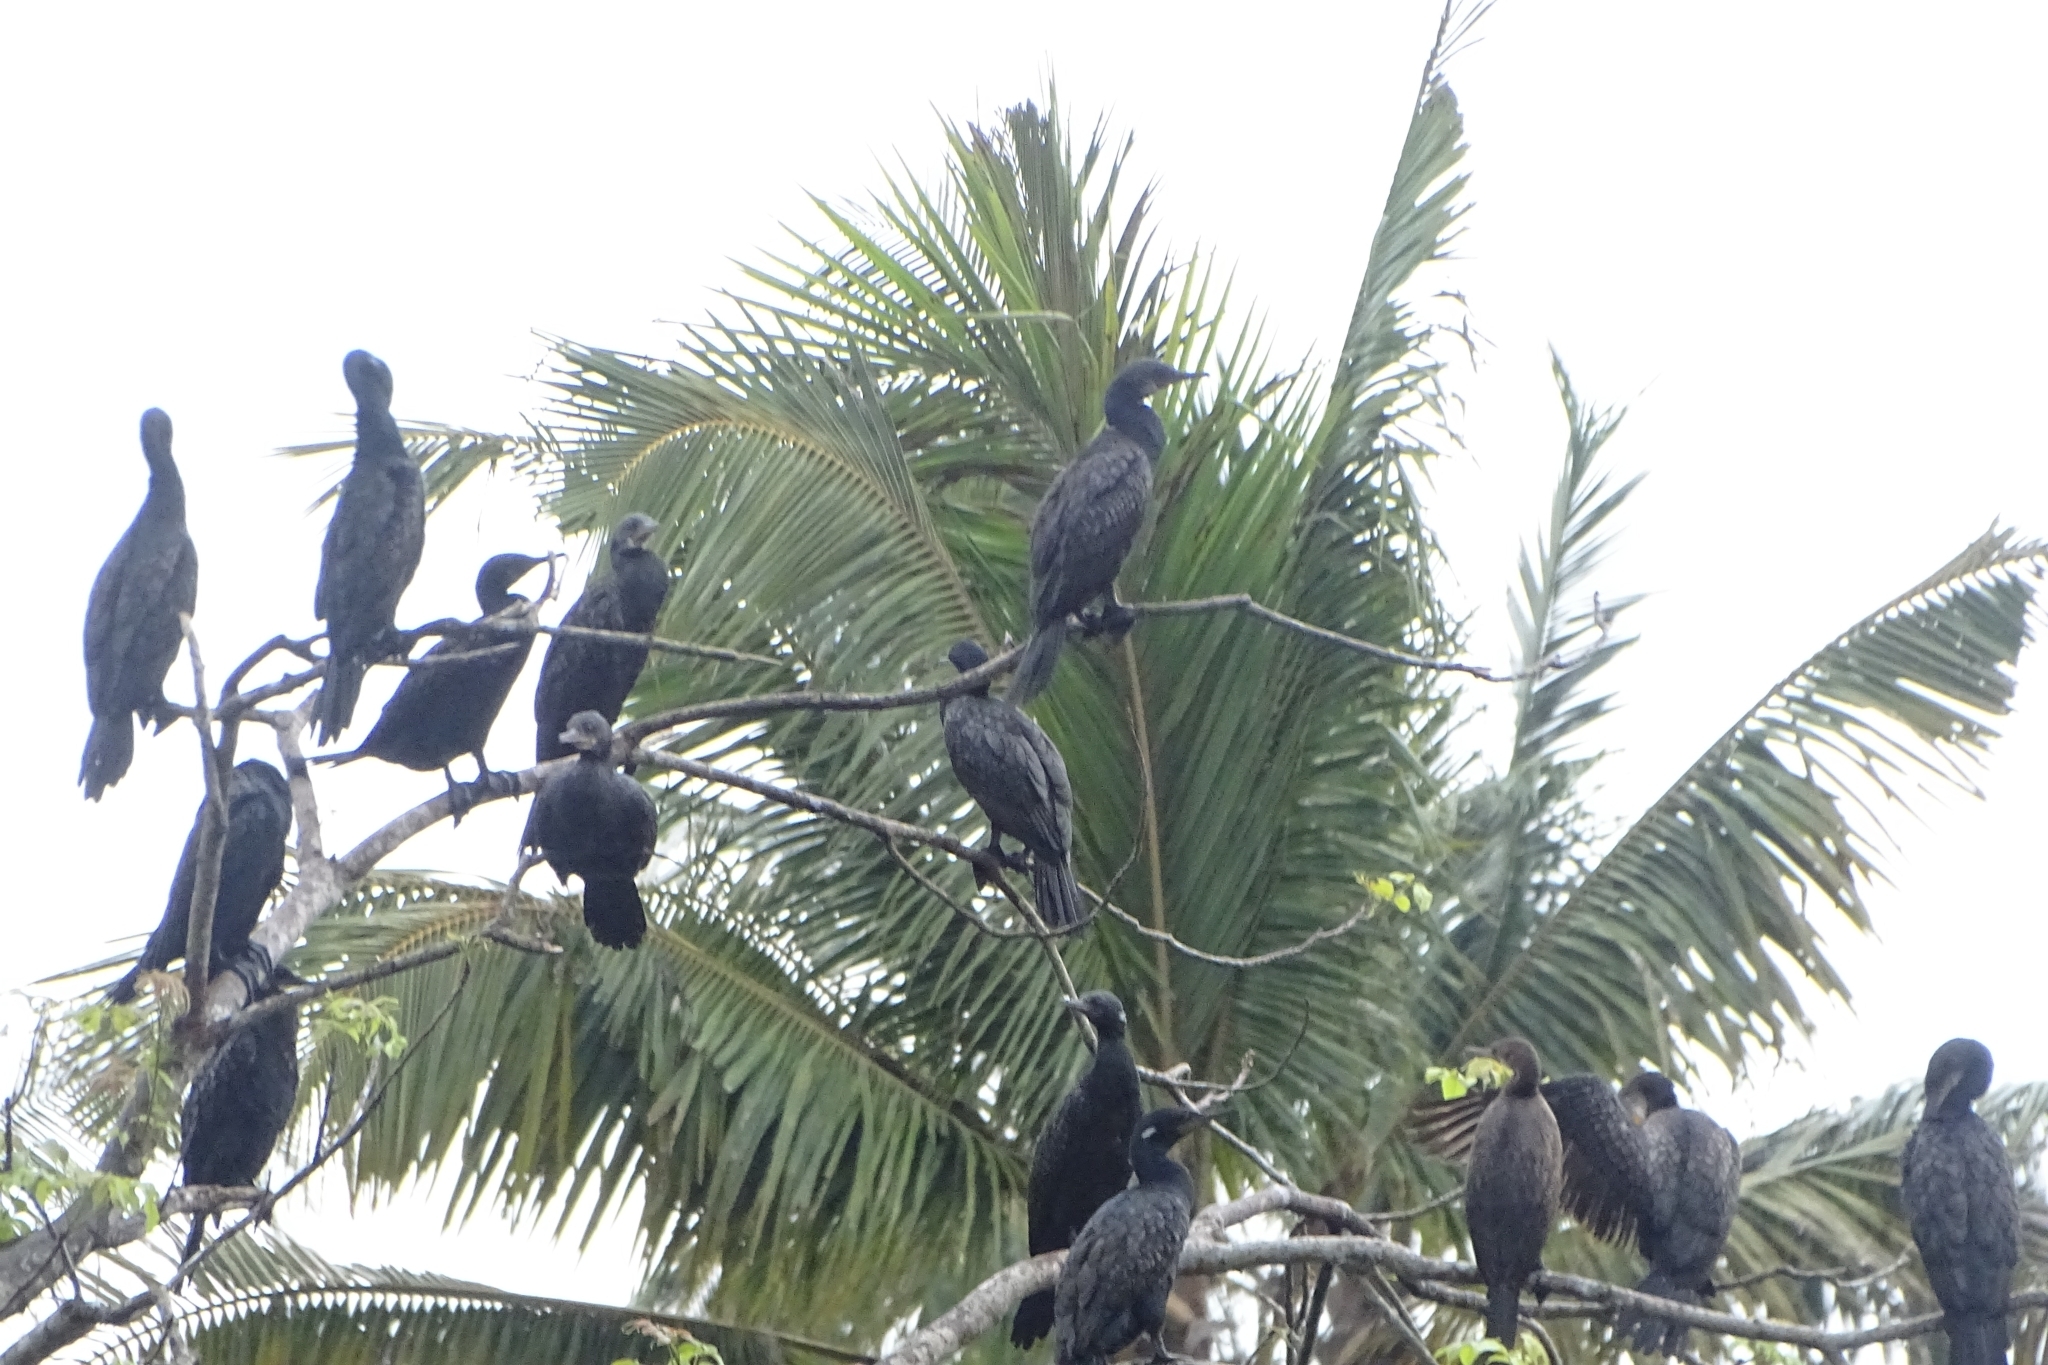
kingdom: Animalia
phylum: Chordata
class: Aves
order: Suliformes
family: Phalacrocoracidae
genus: Microcarbo
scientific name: Microcarbo niger
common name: Little cormorant
